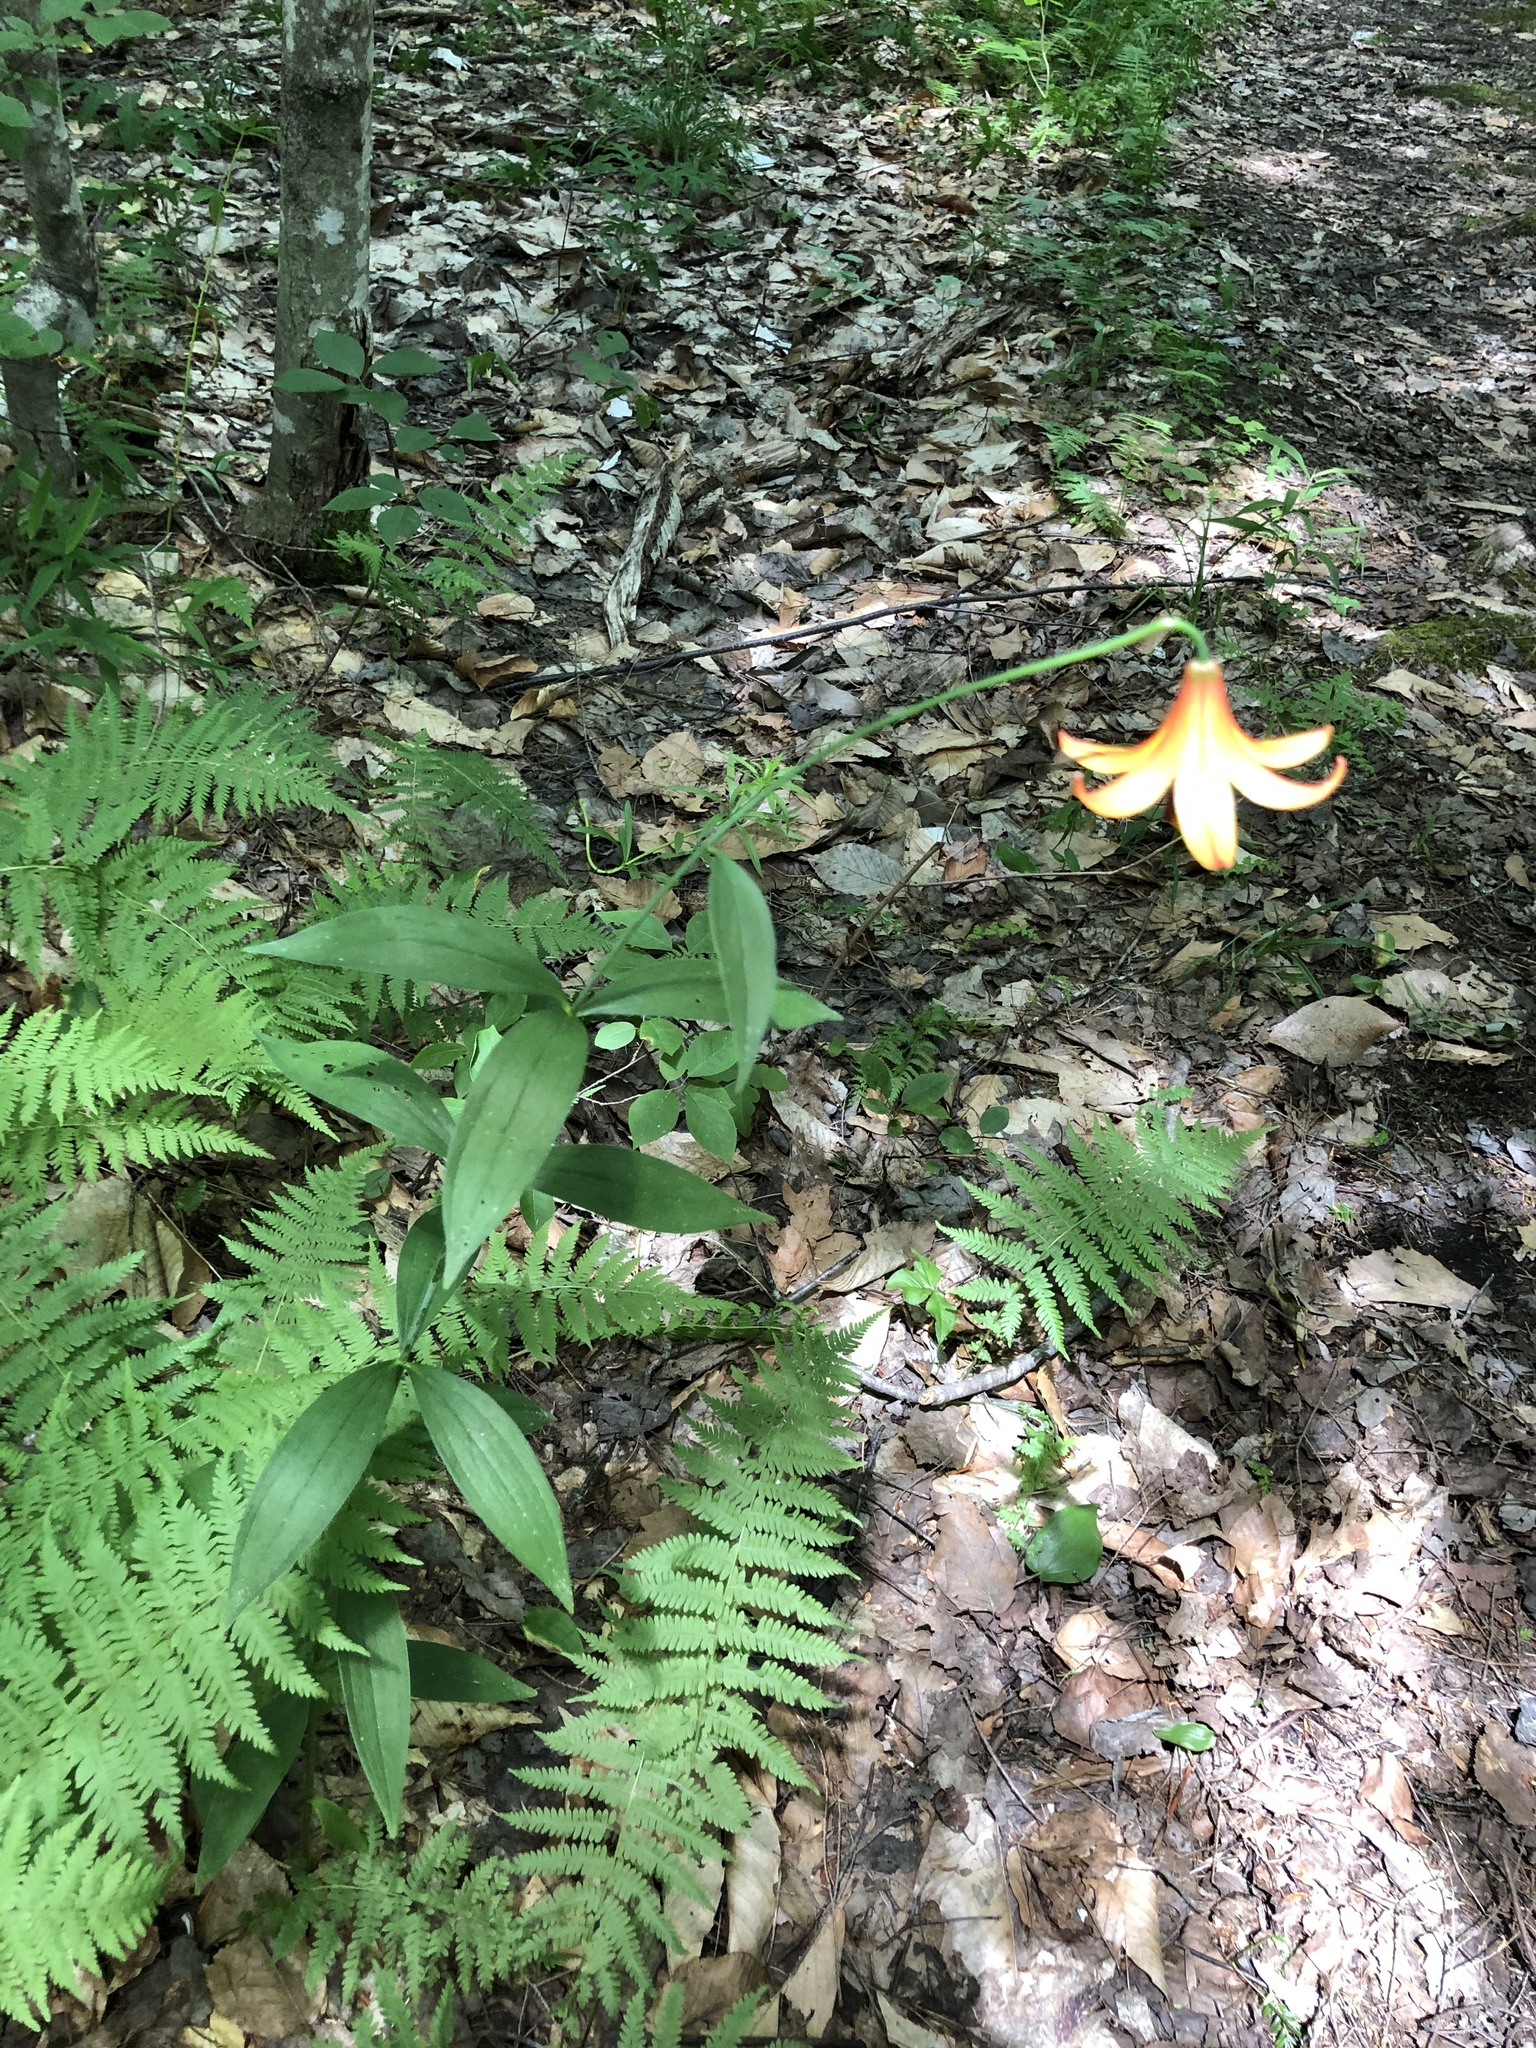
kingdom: Plantae
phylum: Tracheophyta
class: Liliopsida
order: Liliales
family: Liliaceae
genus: Lilium
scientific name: Lilium canadense
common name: Canada lily
